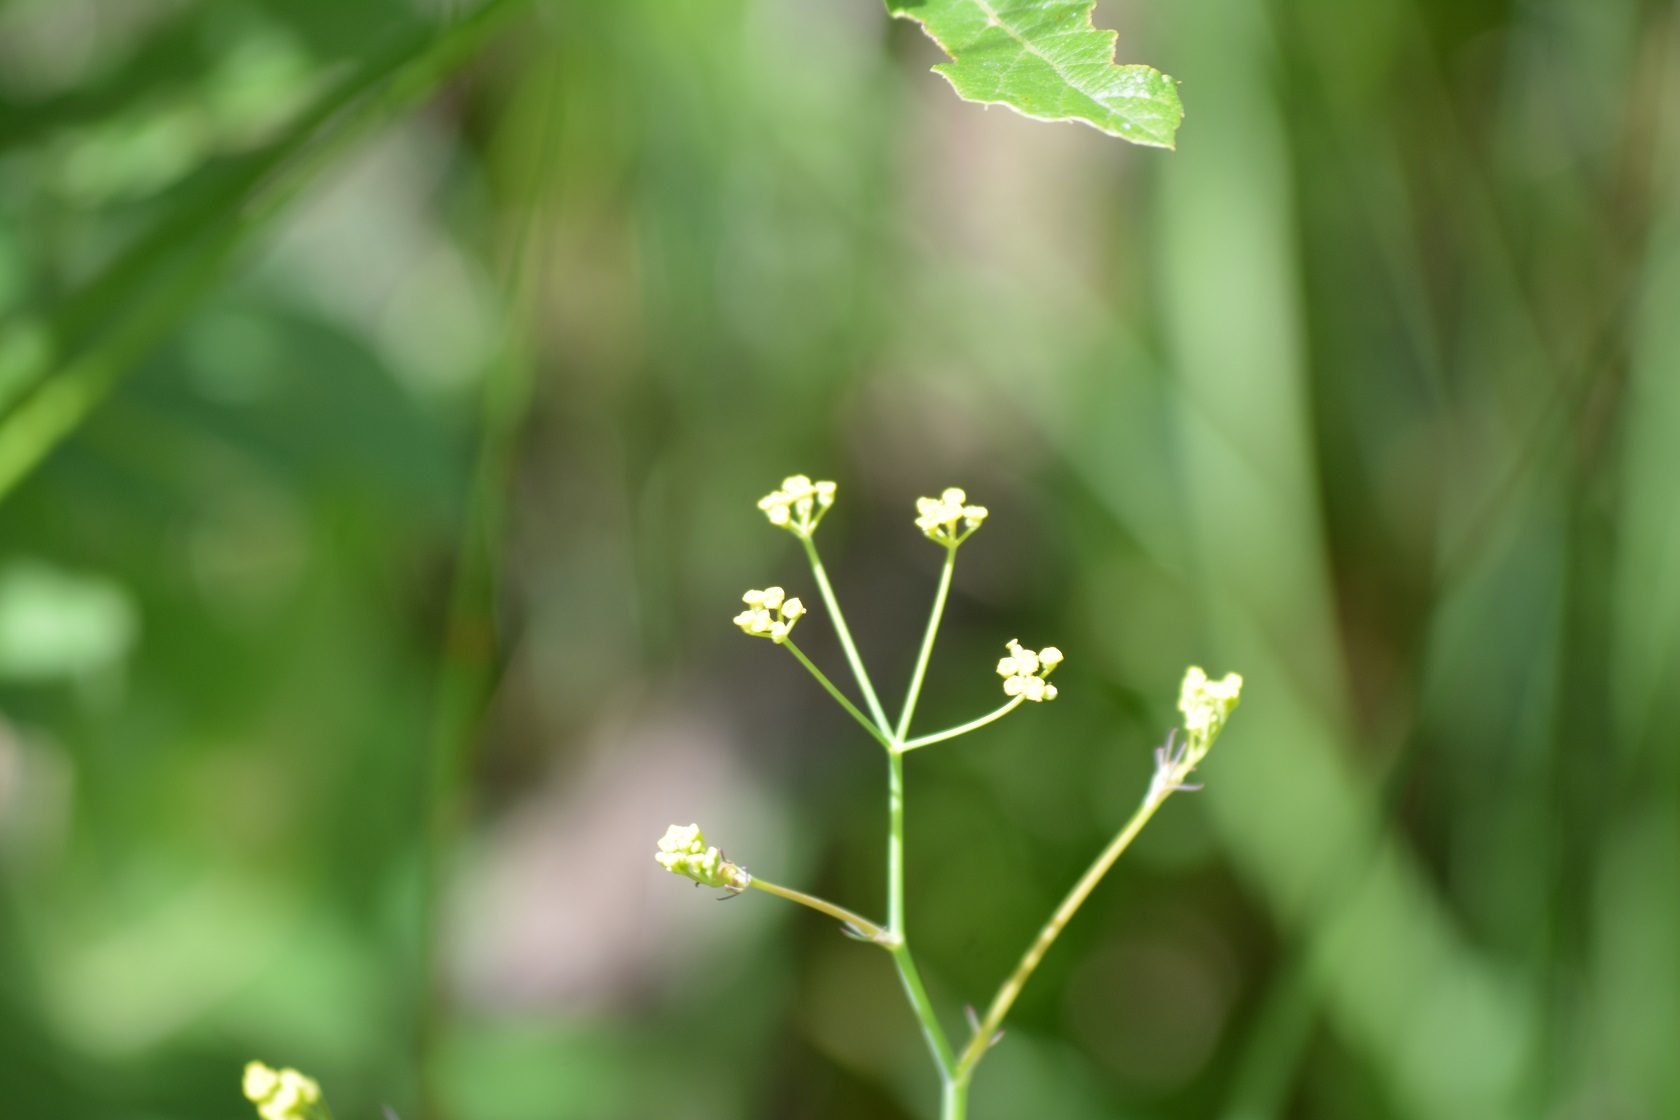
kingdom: Plantae
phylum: Tracheophyta
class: Magnoliopsida
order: Apiales
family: Apiaceae
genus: Donnellsmithia
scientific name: Donnellsmithia juncea
